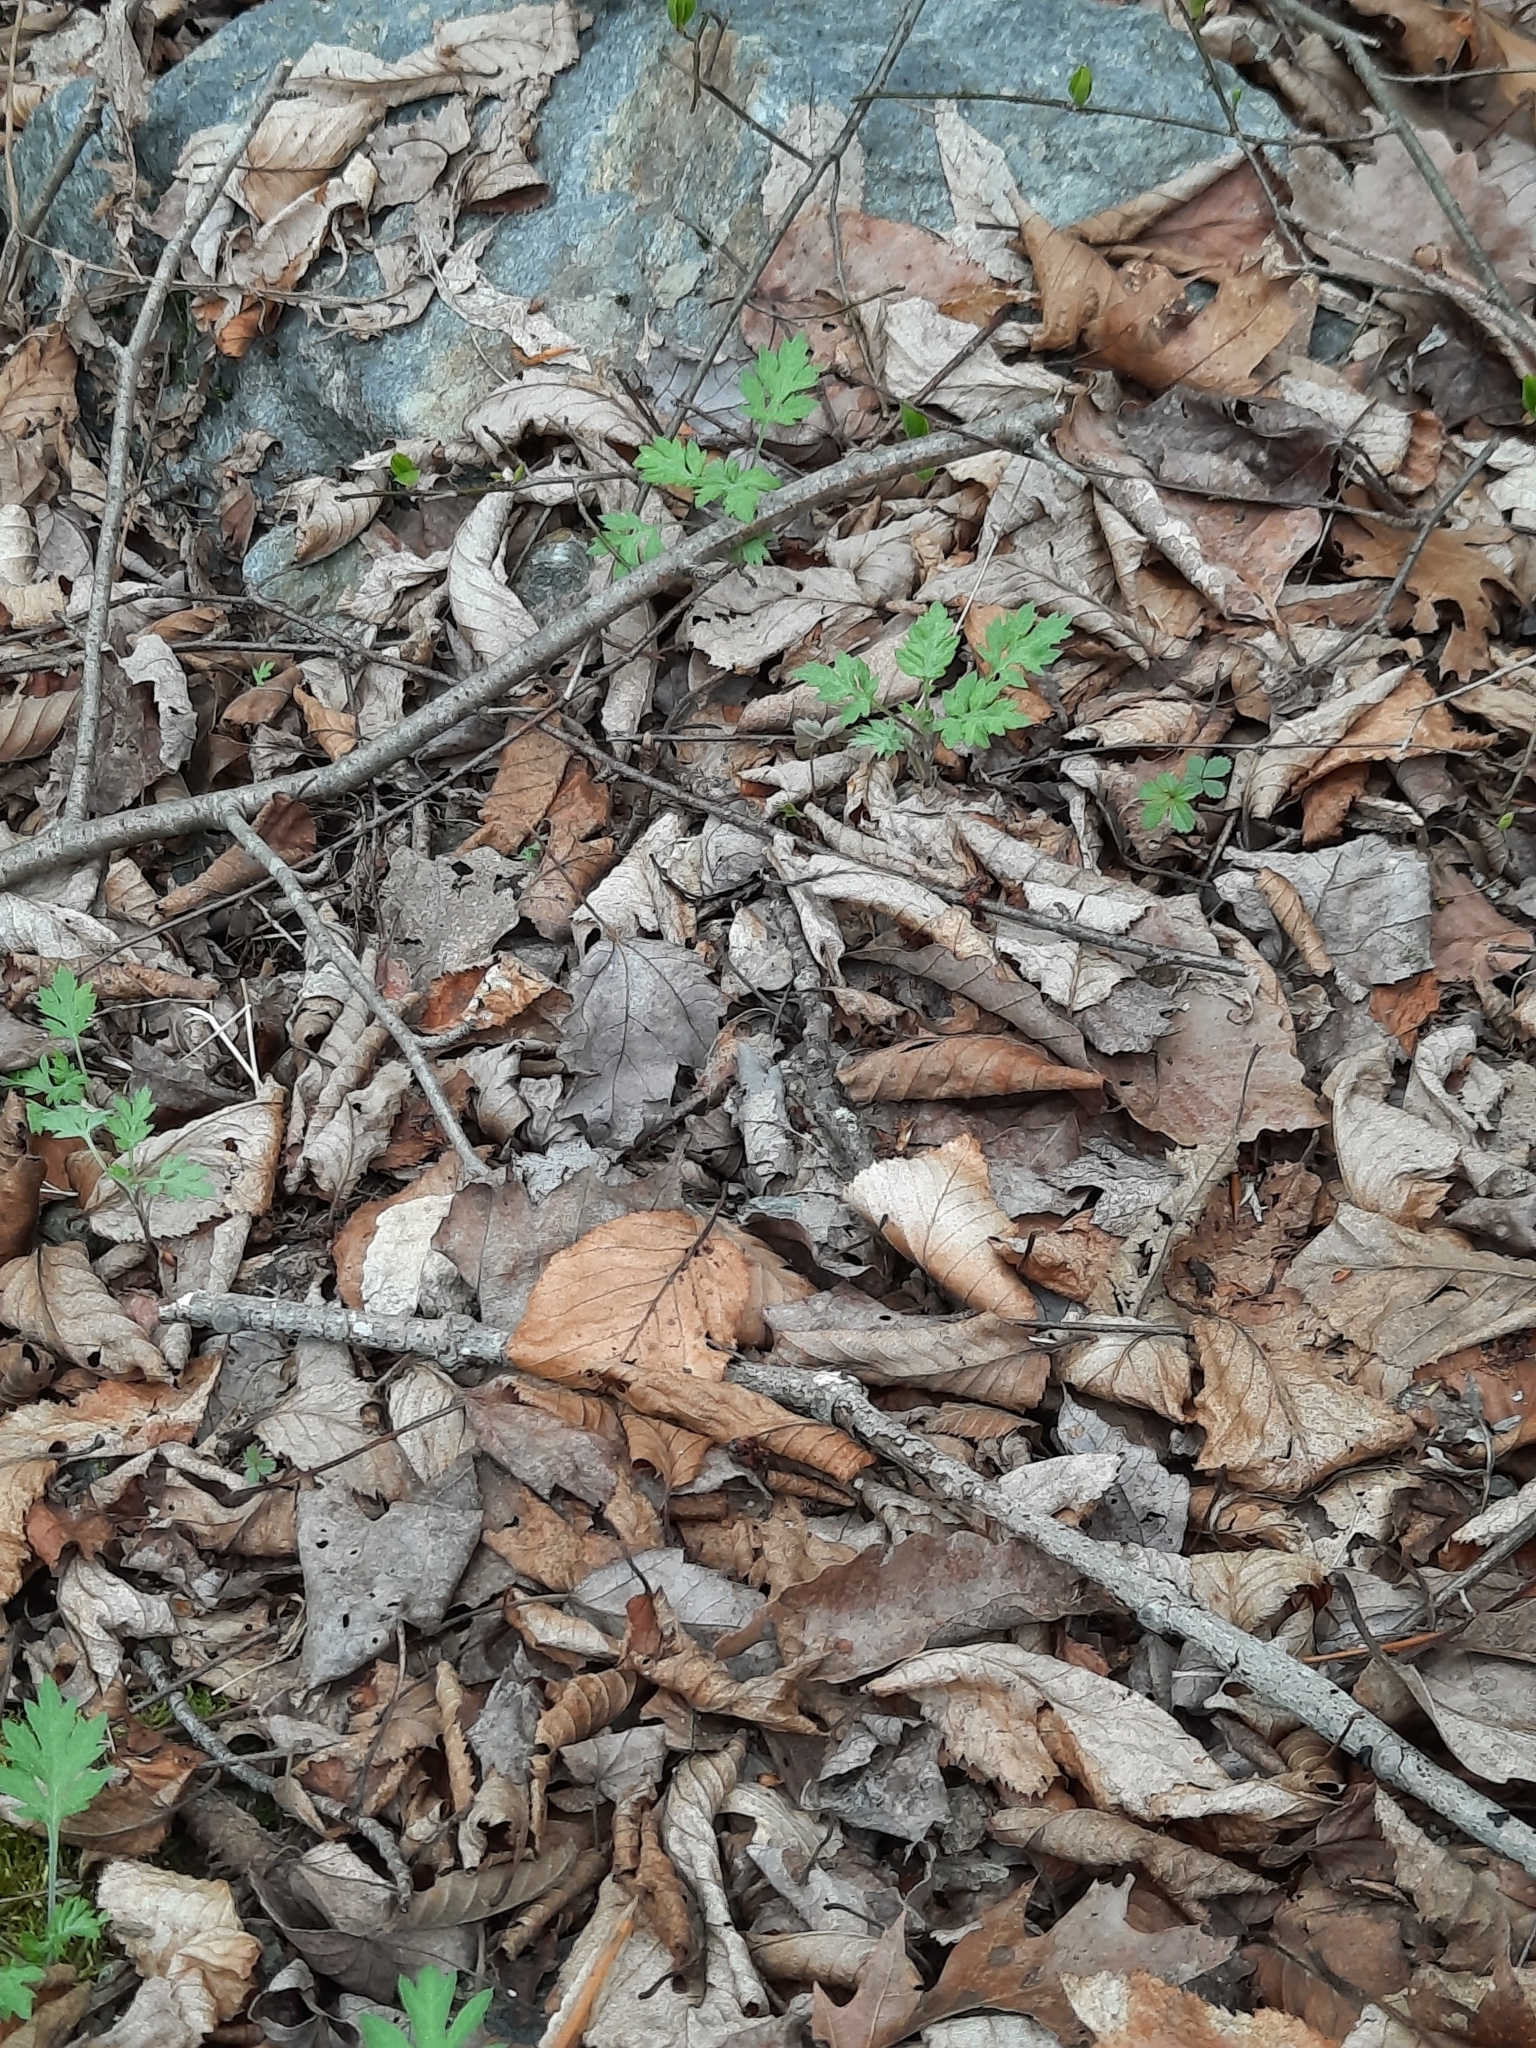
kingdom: Plantae
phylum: Tracheophyta
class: Magnoliopsida
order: Asterales
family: Asteraceae
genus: Artemisia
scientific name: Artemisia vulgaris
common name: Mugwort
